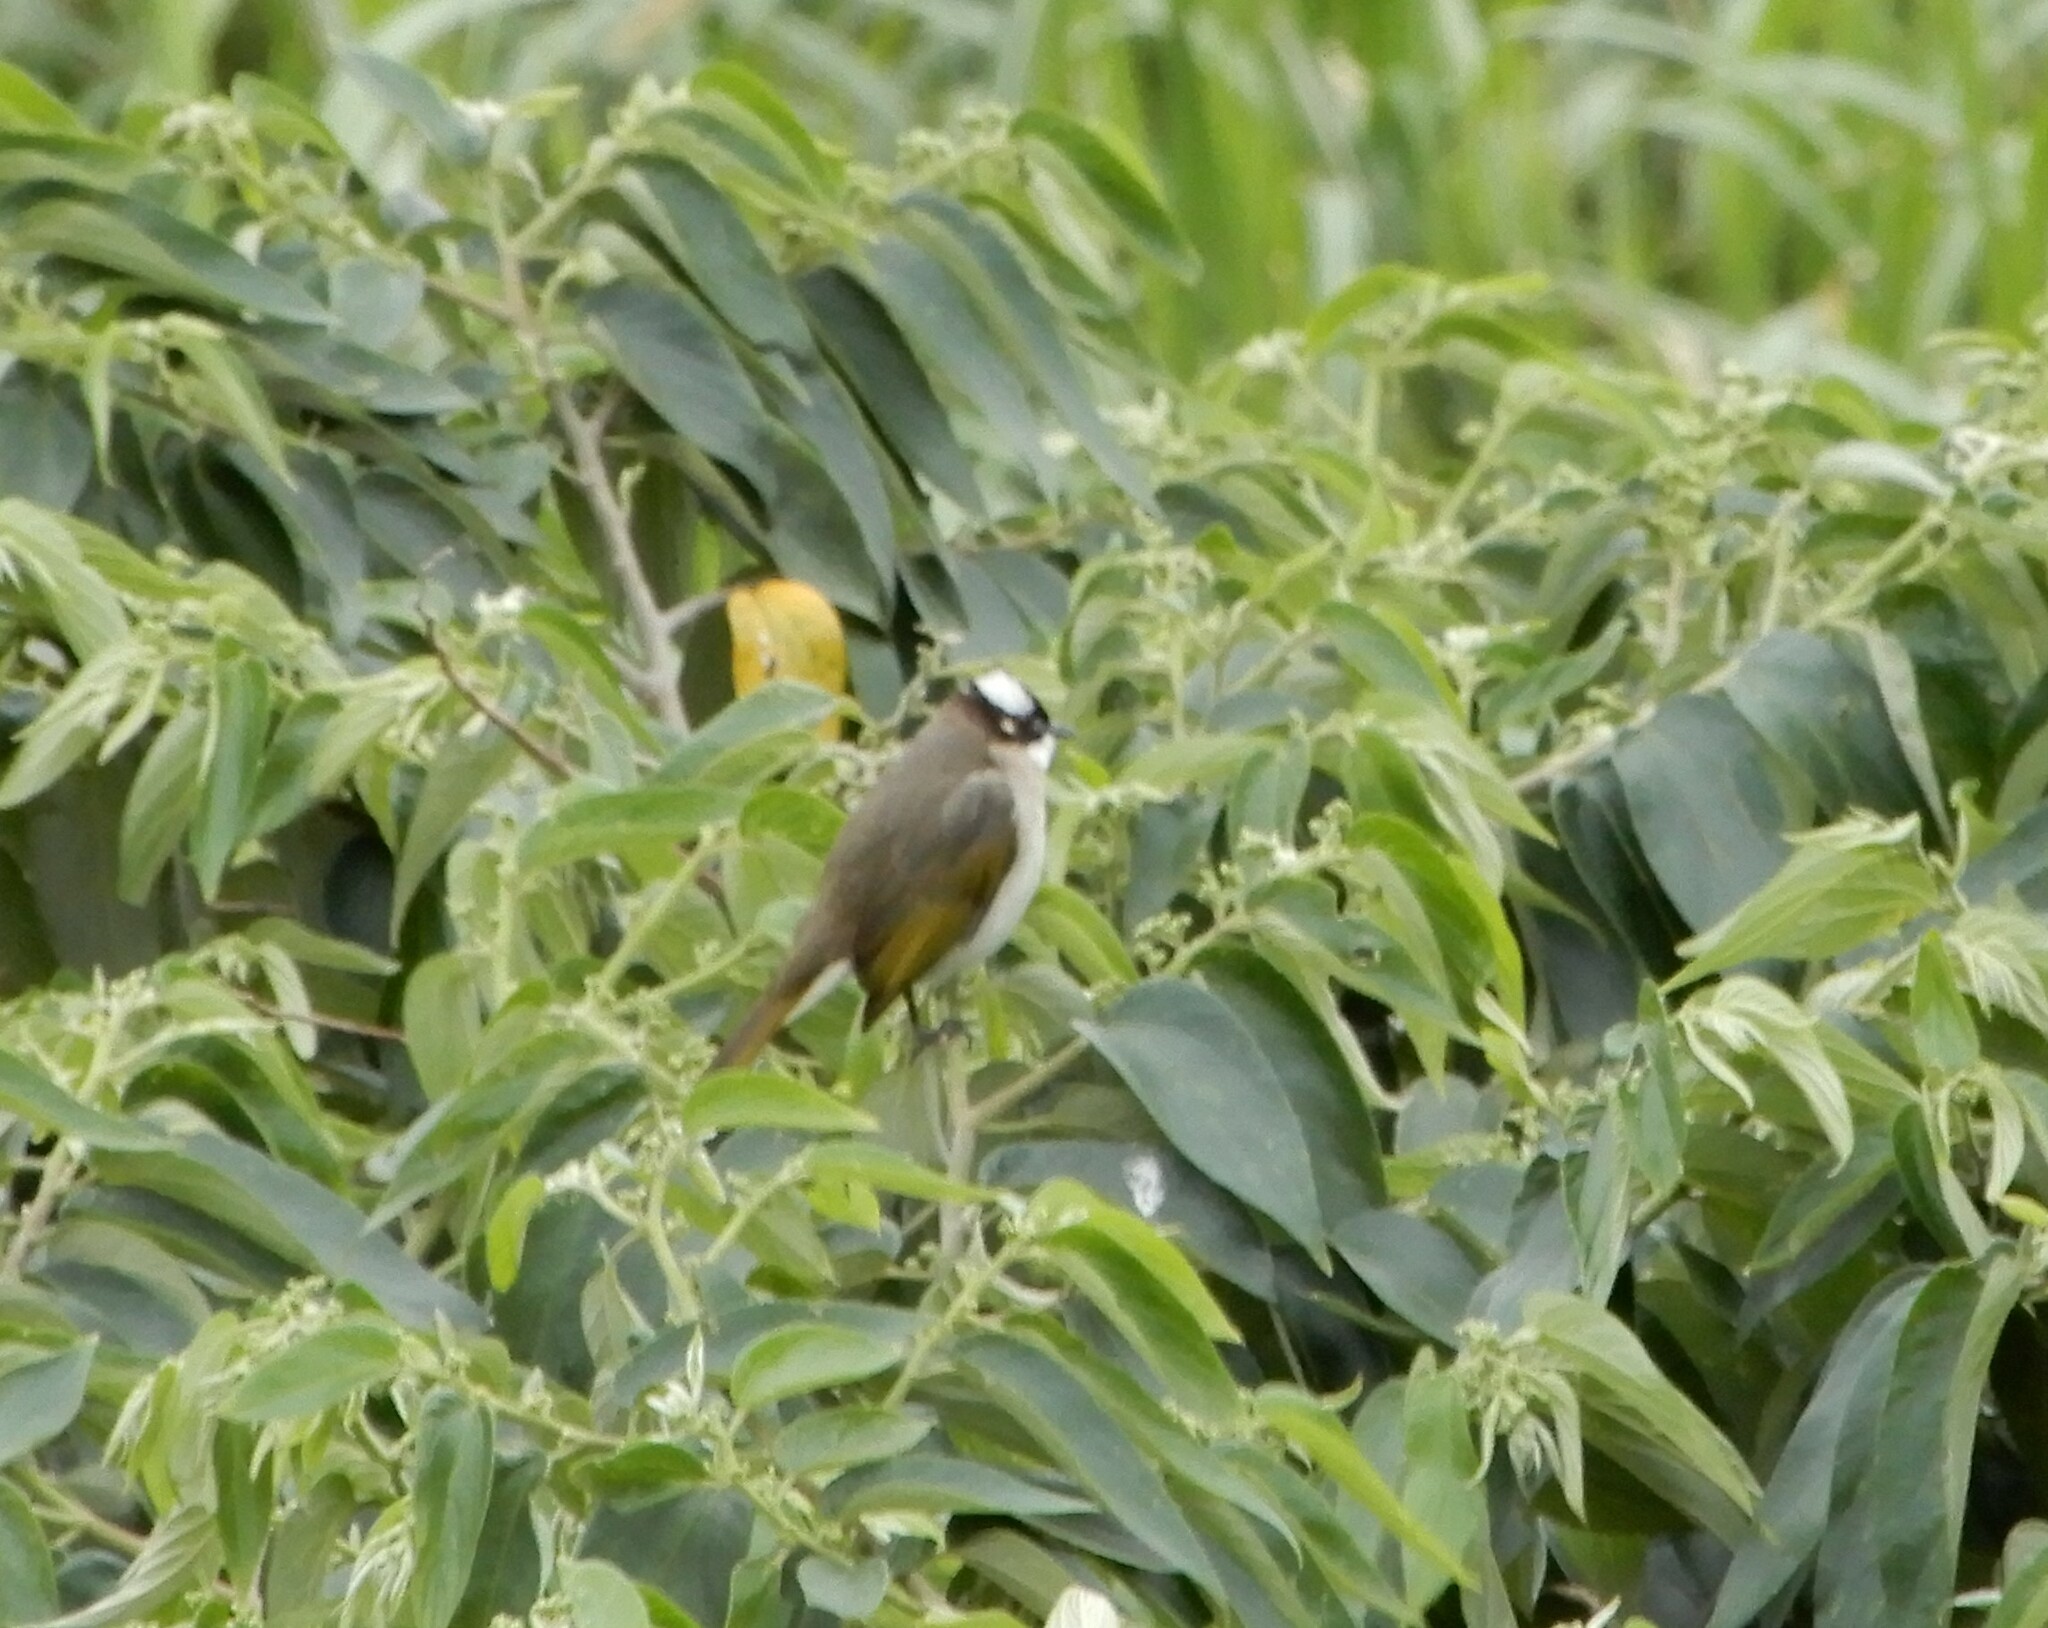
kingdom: Animalia
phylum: Chordata
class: Aves
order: Passeriformes
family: Pycnonotidae
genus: Pycnonotus
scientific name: Pycnonotus sinensis
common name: Light-vented bulbul
